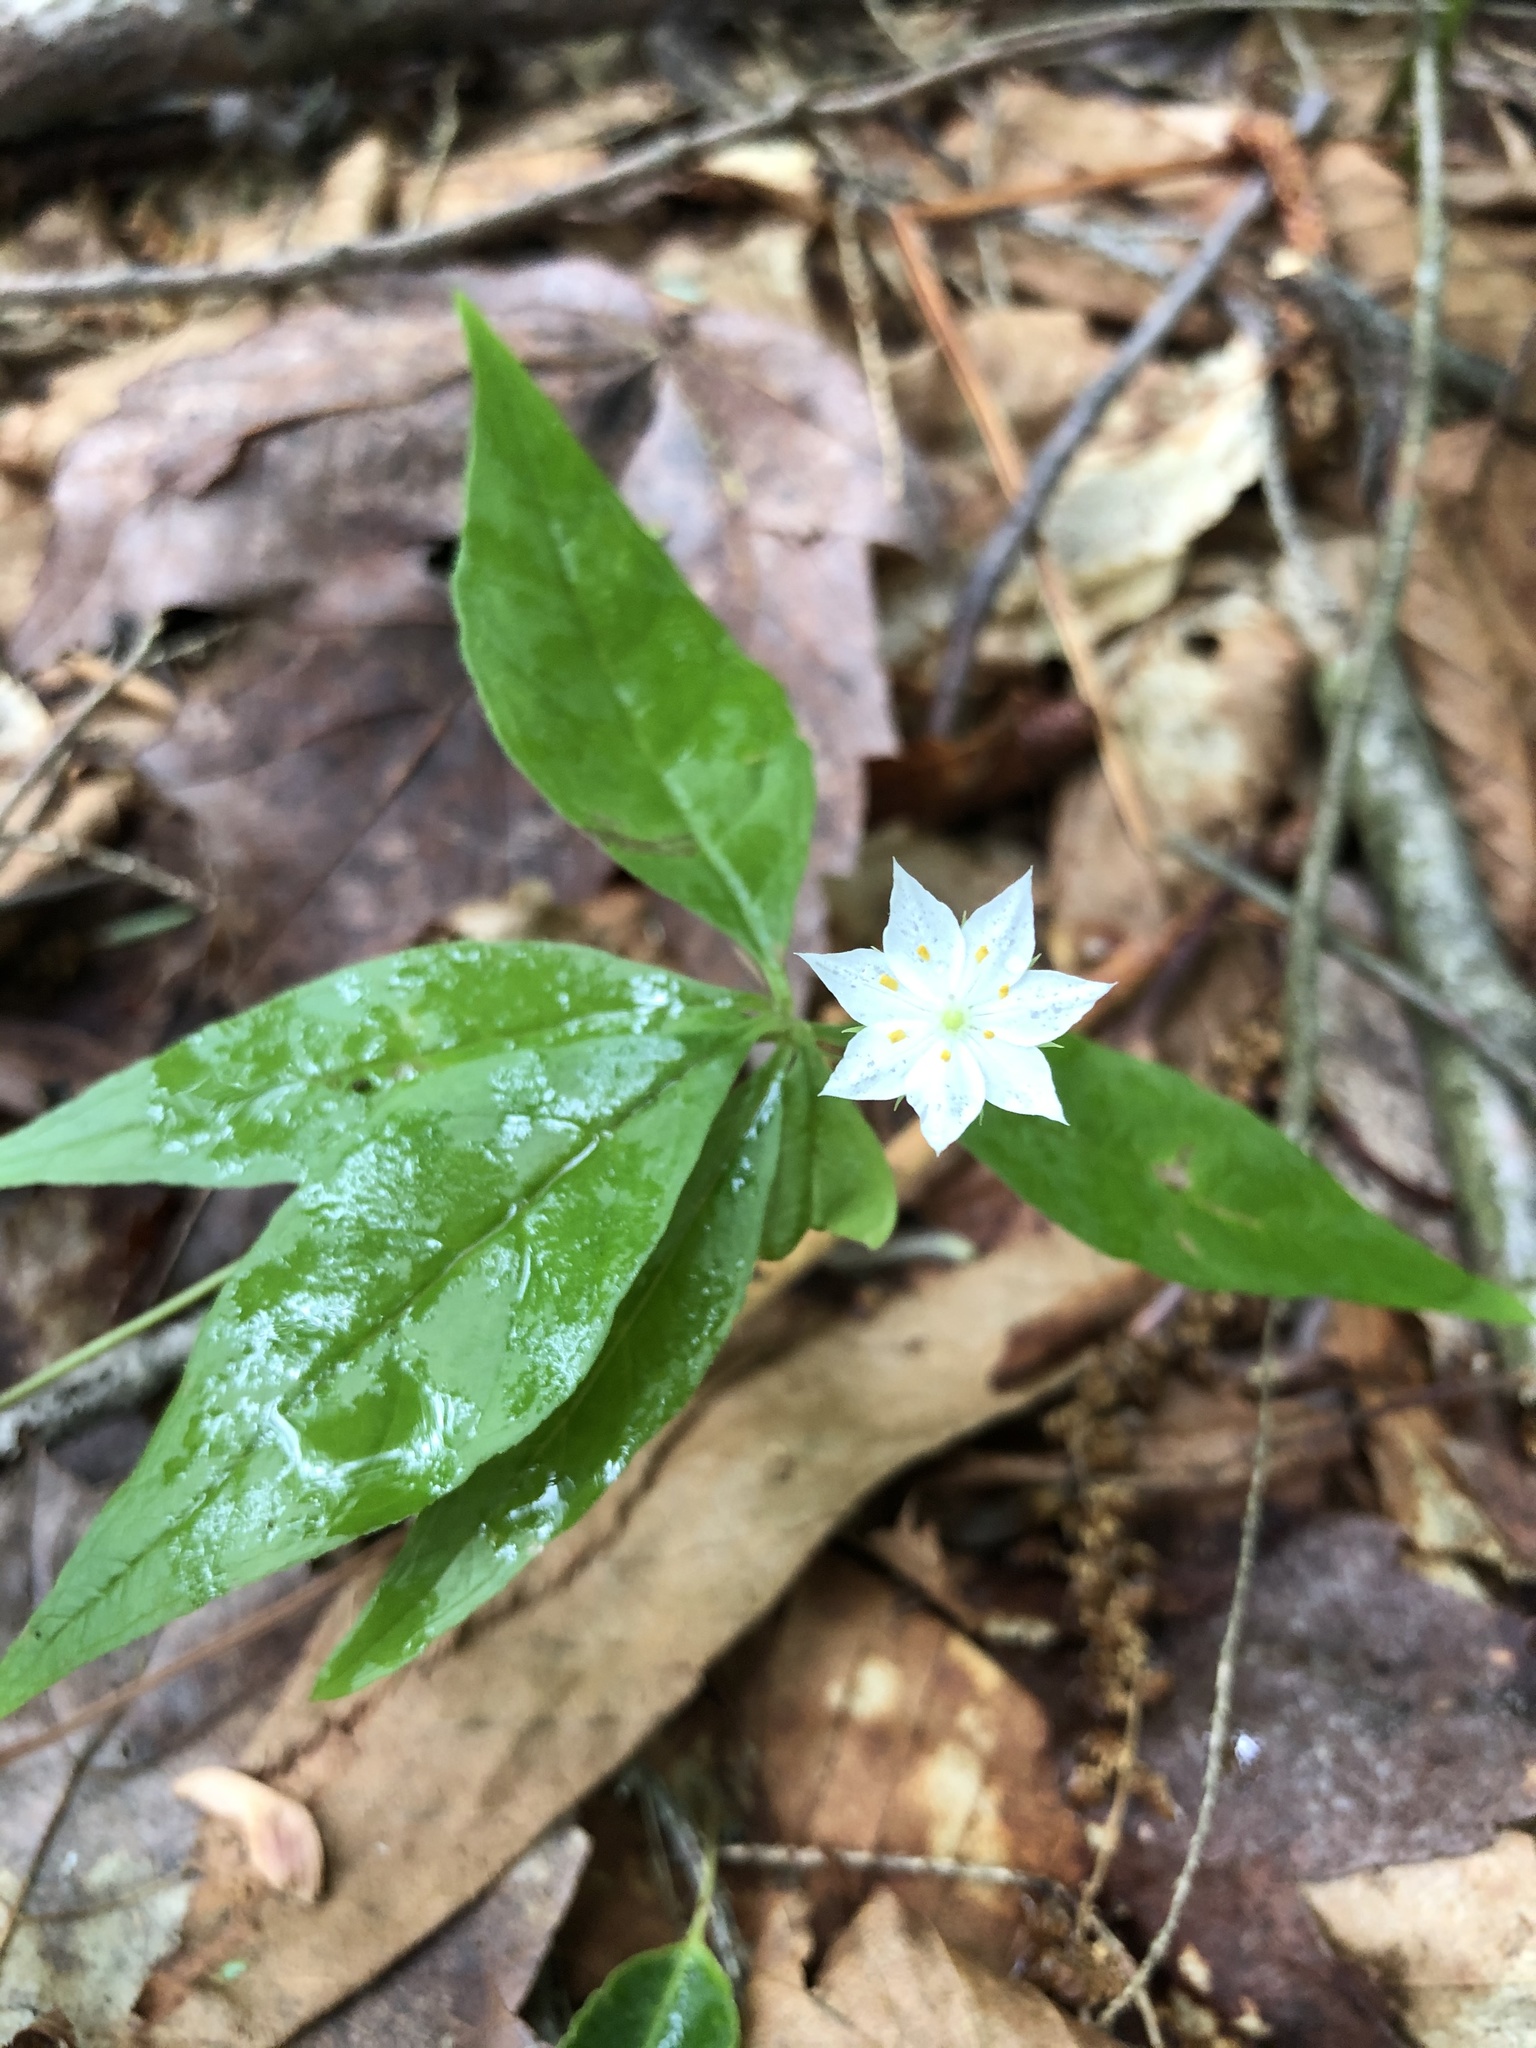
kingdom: Plantae
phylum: Tracheophyta
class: Magnoliopsida
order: Ericales
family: Primulaceae
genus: Lysimachia
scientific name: Lysimachia borealis
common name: American starflower
